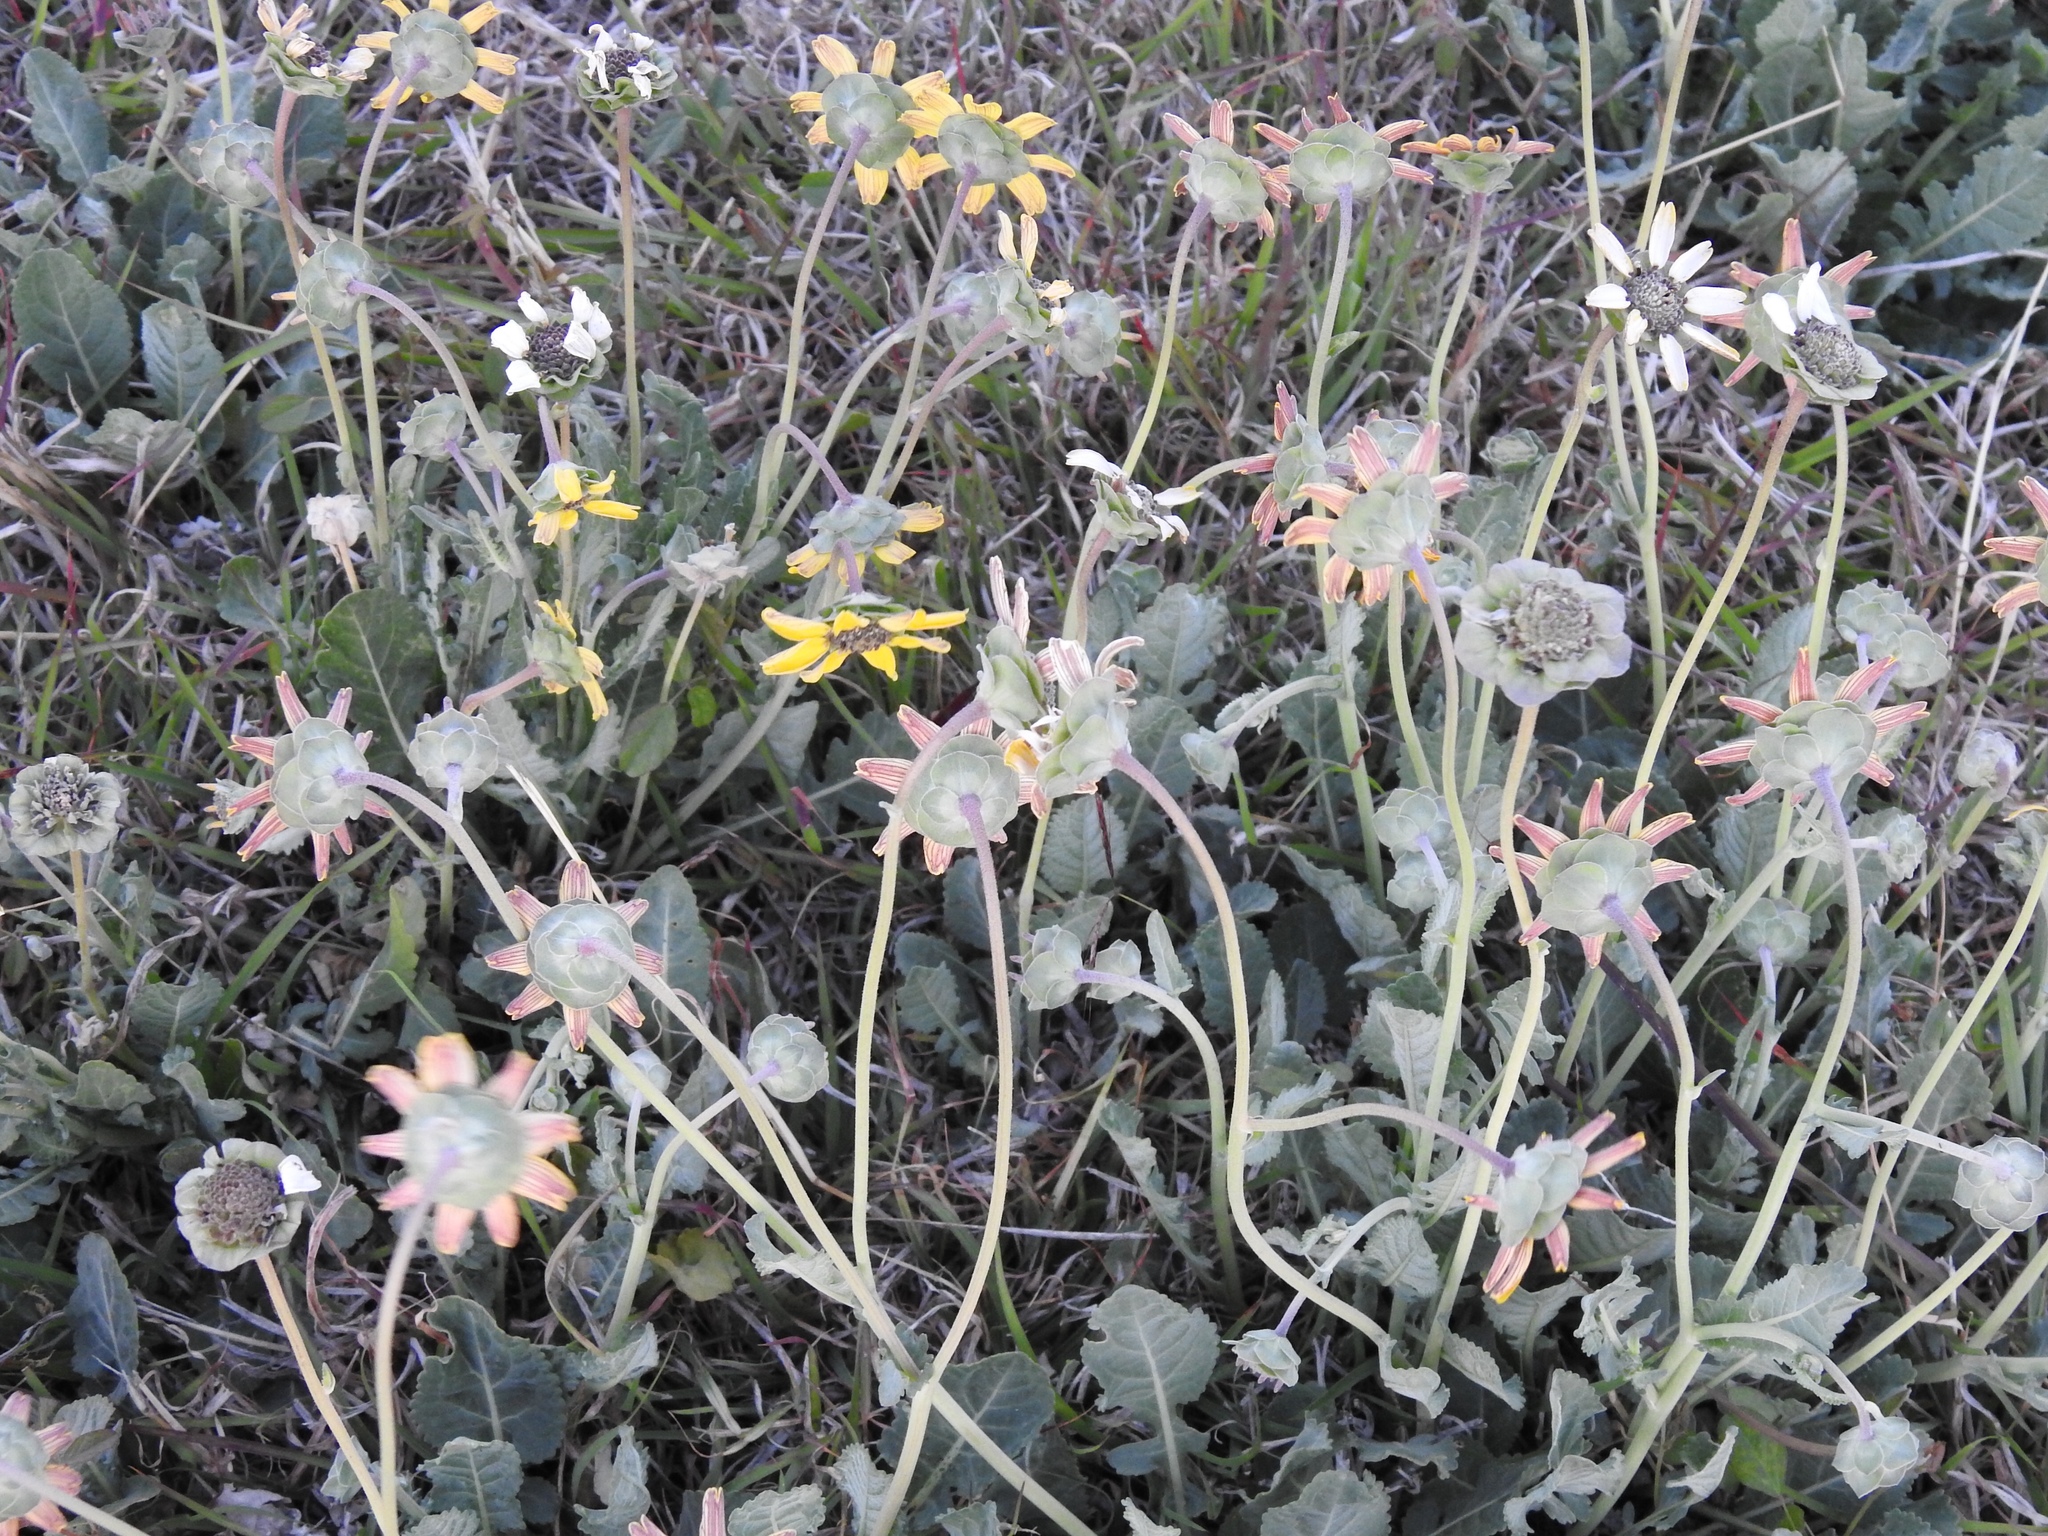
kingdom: Plantae
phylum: Tracheophyta
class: Magnoliopsida
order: Asterales
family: Asteraceae
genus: Berlandiera
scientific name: Berlandiera lyrata
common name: Chocolate-flower
